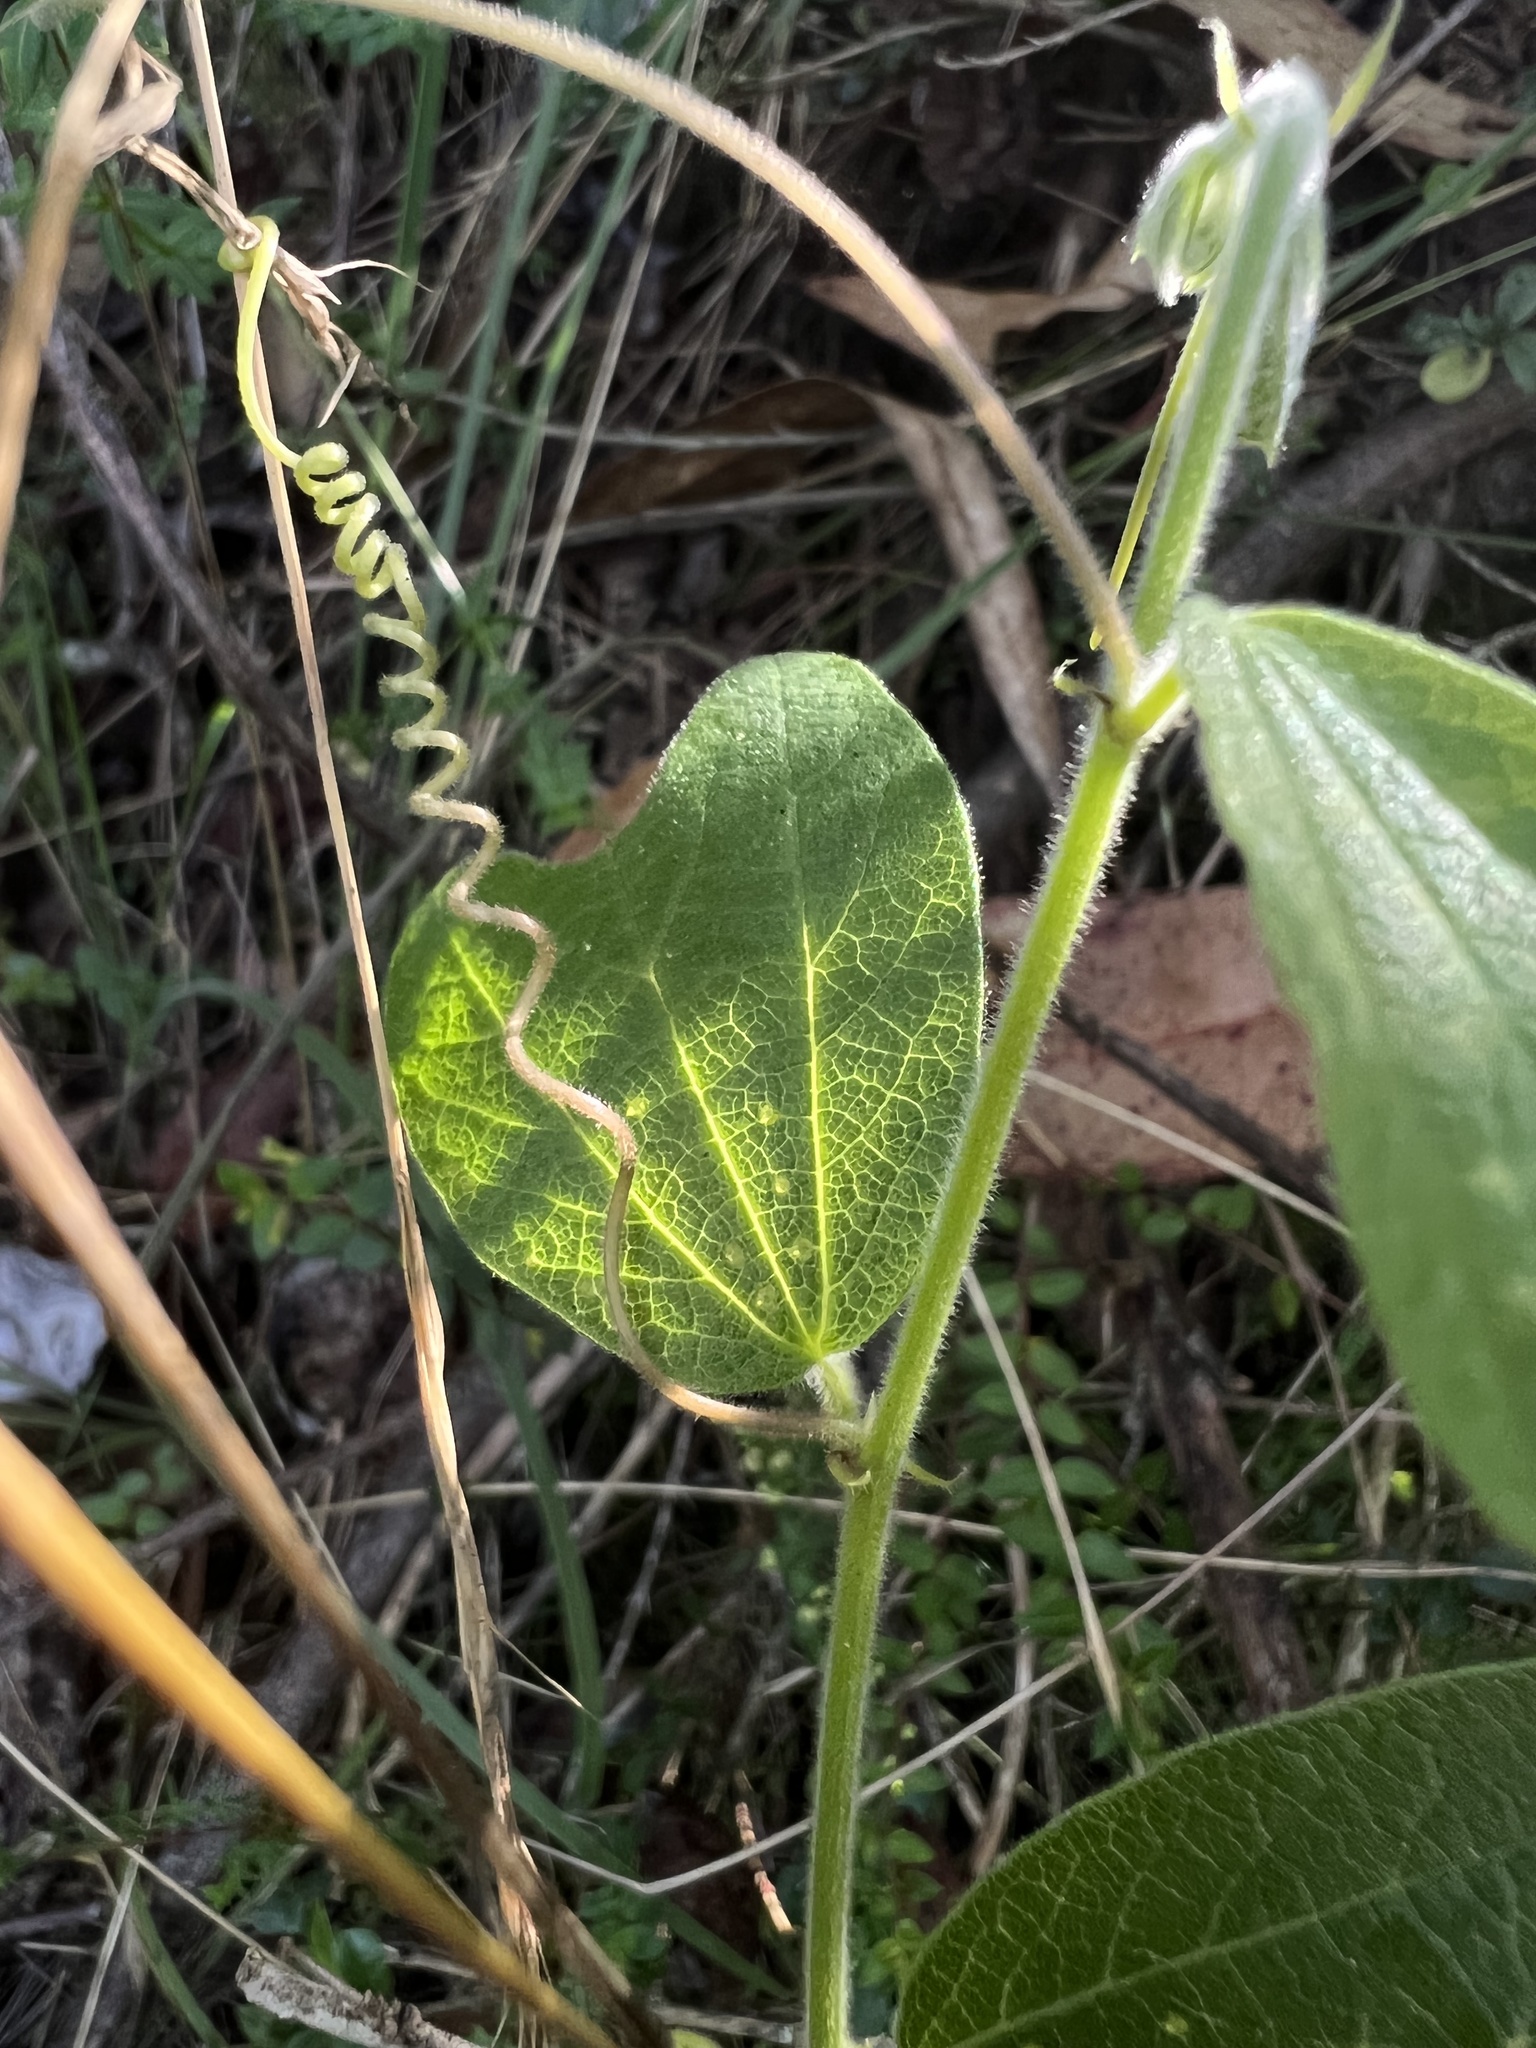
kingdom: Plantae
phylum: Tracheophyta
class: Magnoliopsida
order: Malpighiales
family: Passifloraceae
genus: Passiflora
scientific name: Passiflora bogotensis
